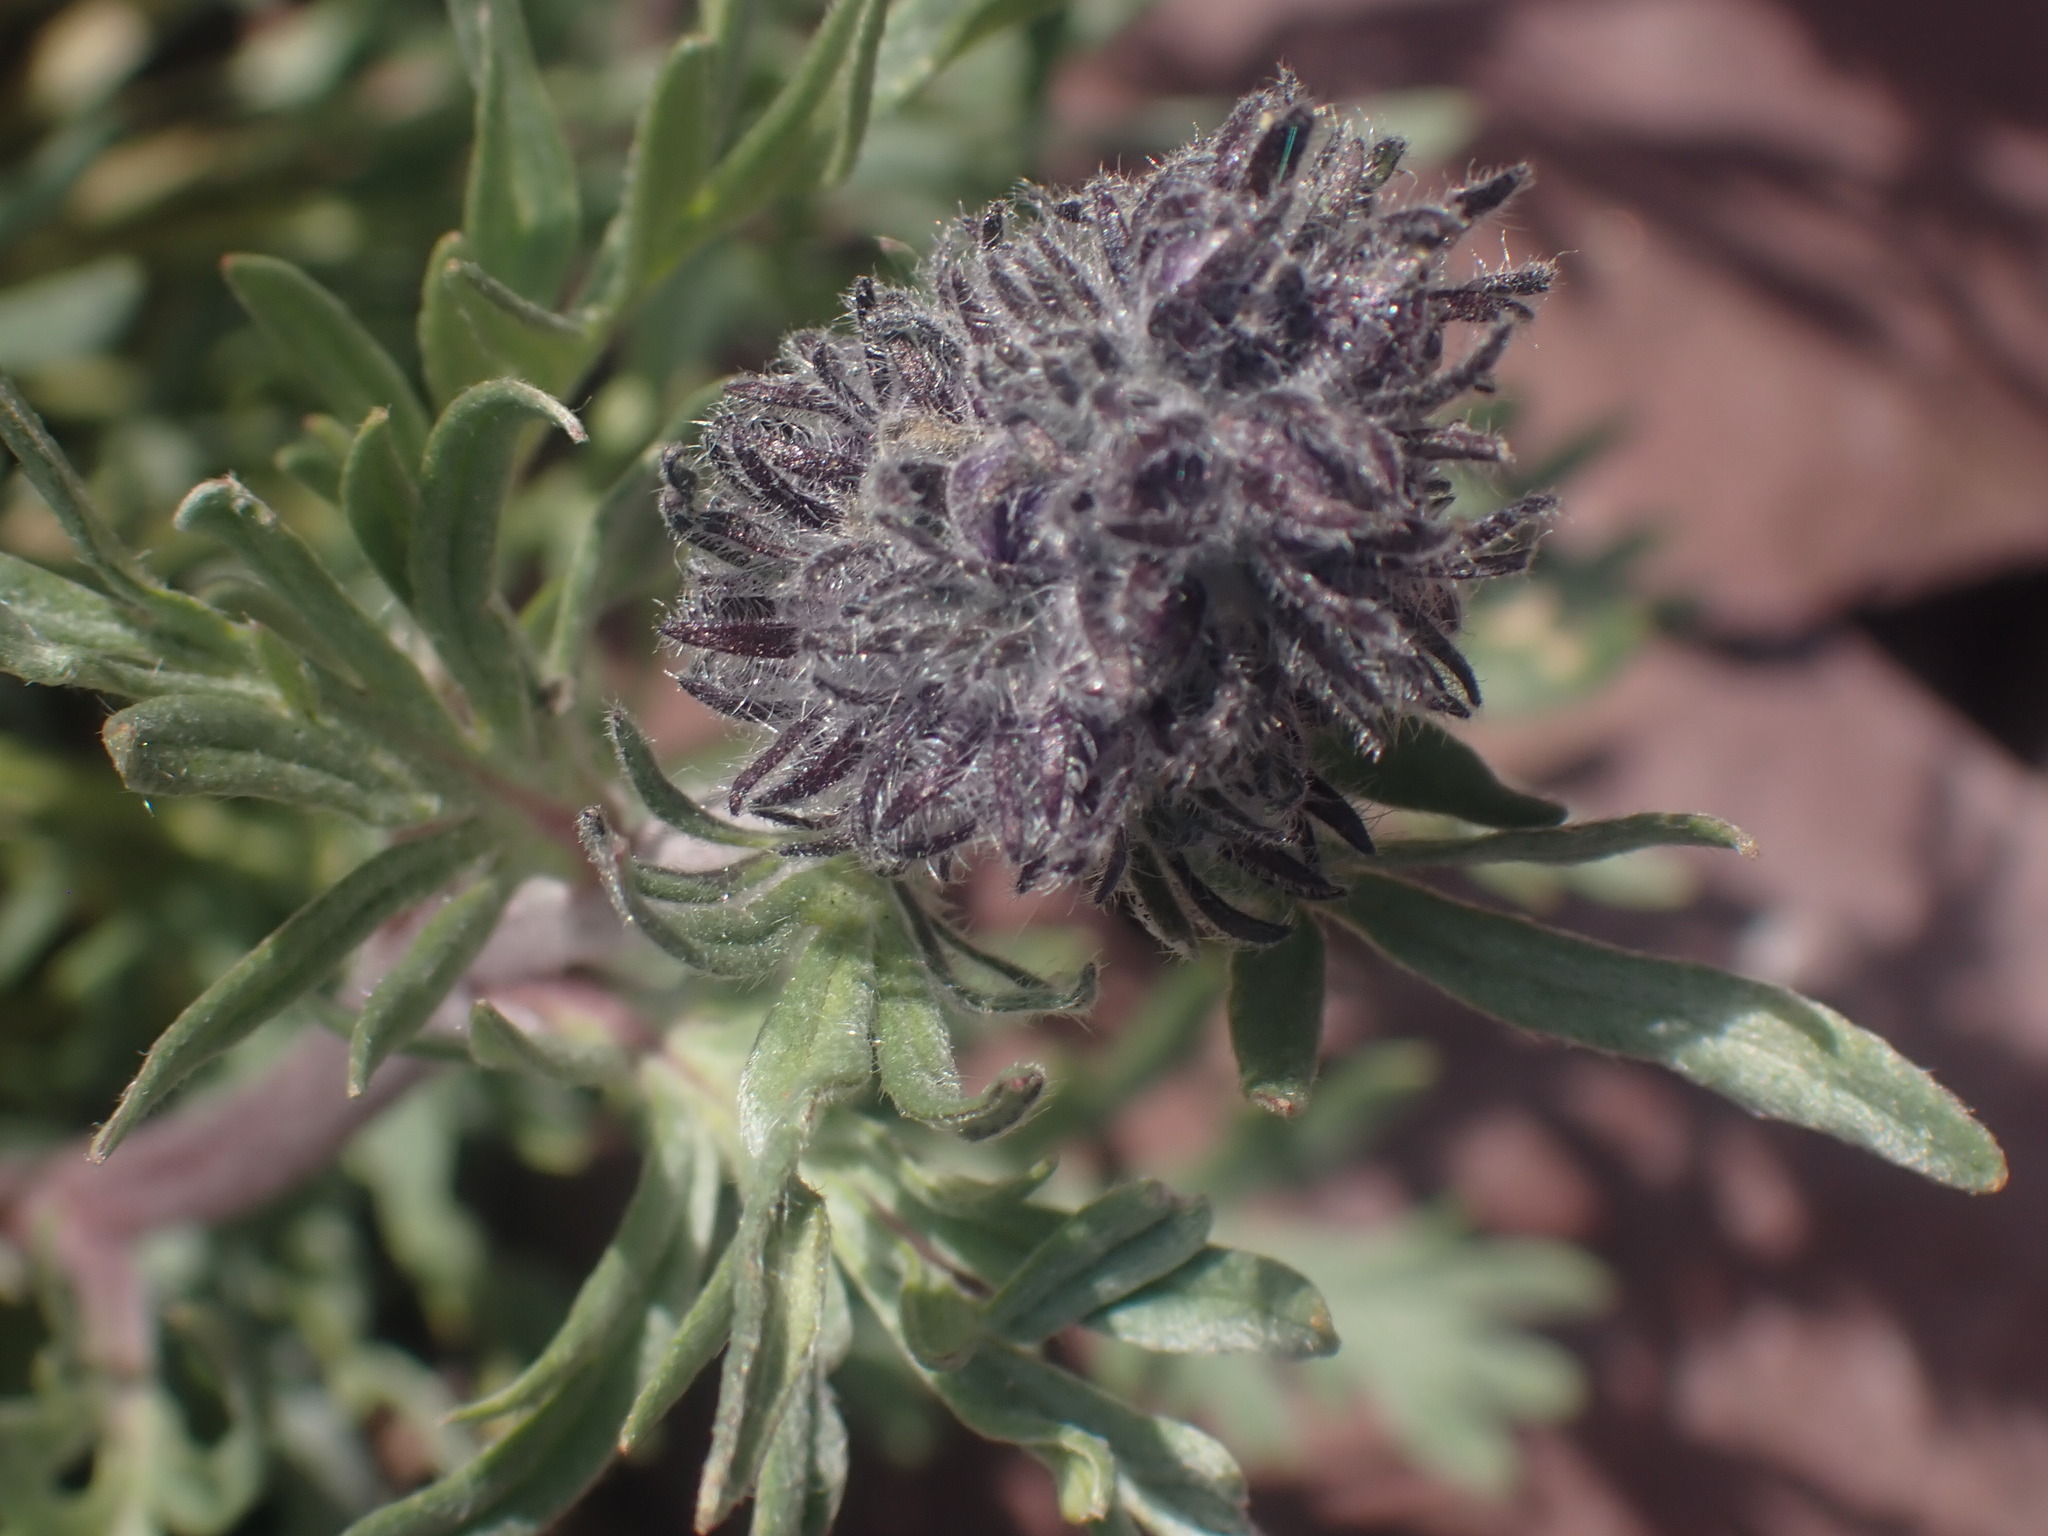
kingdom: Plantae
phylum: Tracheophyta
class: Magnoliopsida
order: Boraginales
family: Hydrophyllaceae
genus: Phacelia
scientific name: Phacelia sericea
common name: Silky phacelia
